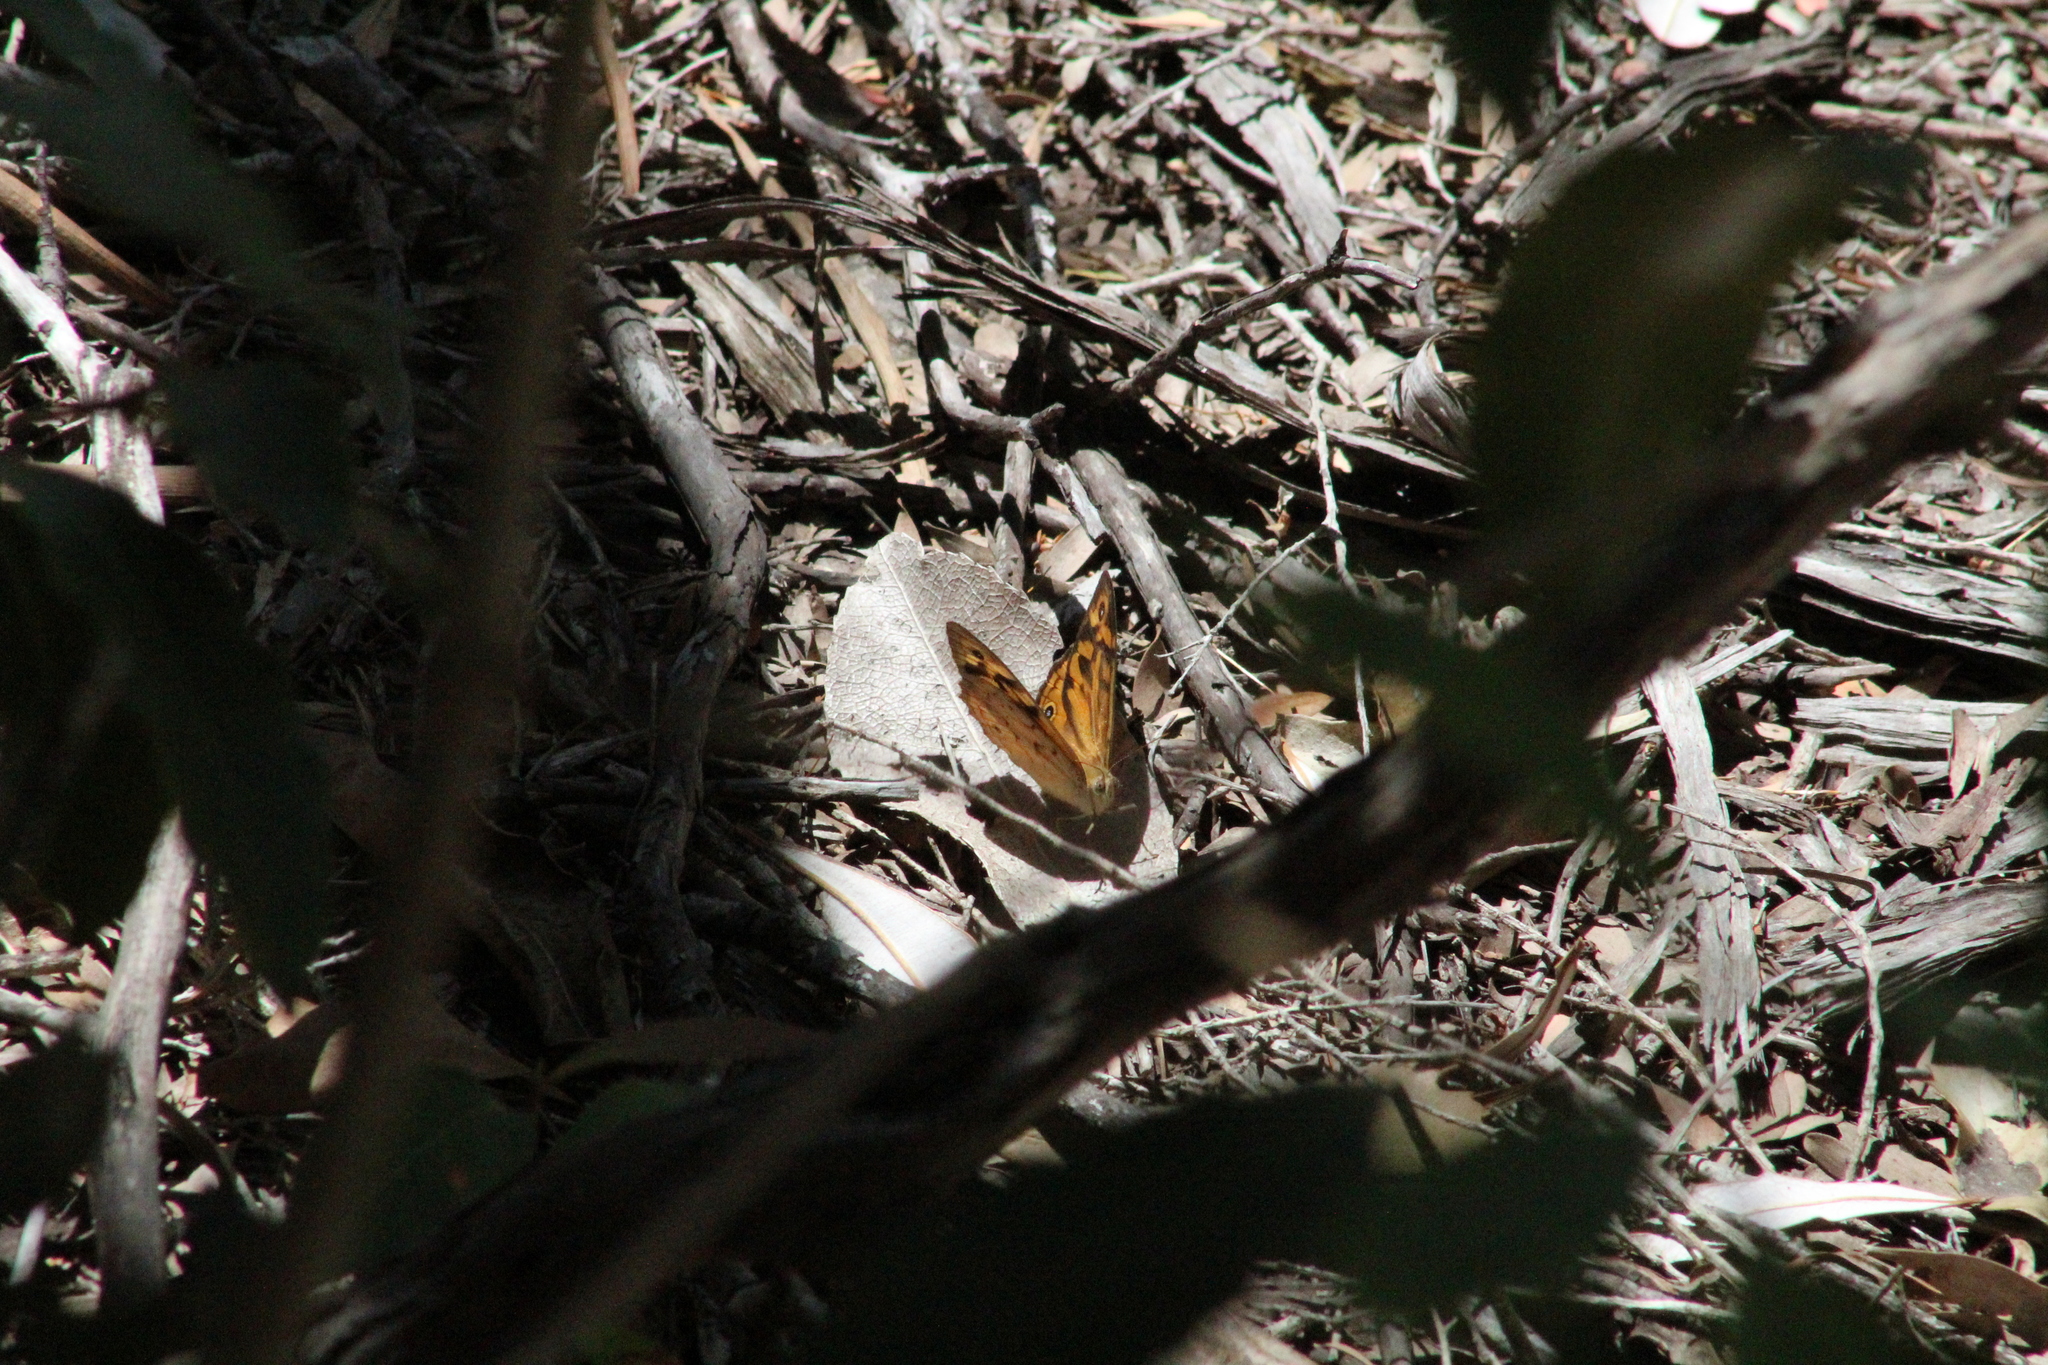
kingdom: Animalia
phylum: Arthropoda
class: Insecta
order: Lepidoptera
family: Nymphalidae
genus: Heteronympha
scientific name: Heteronympha merope
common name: Common brown
